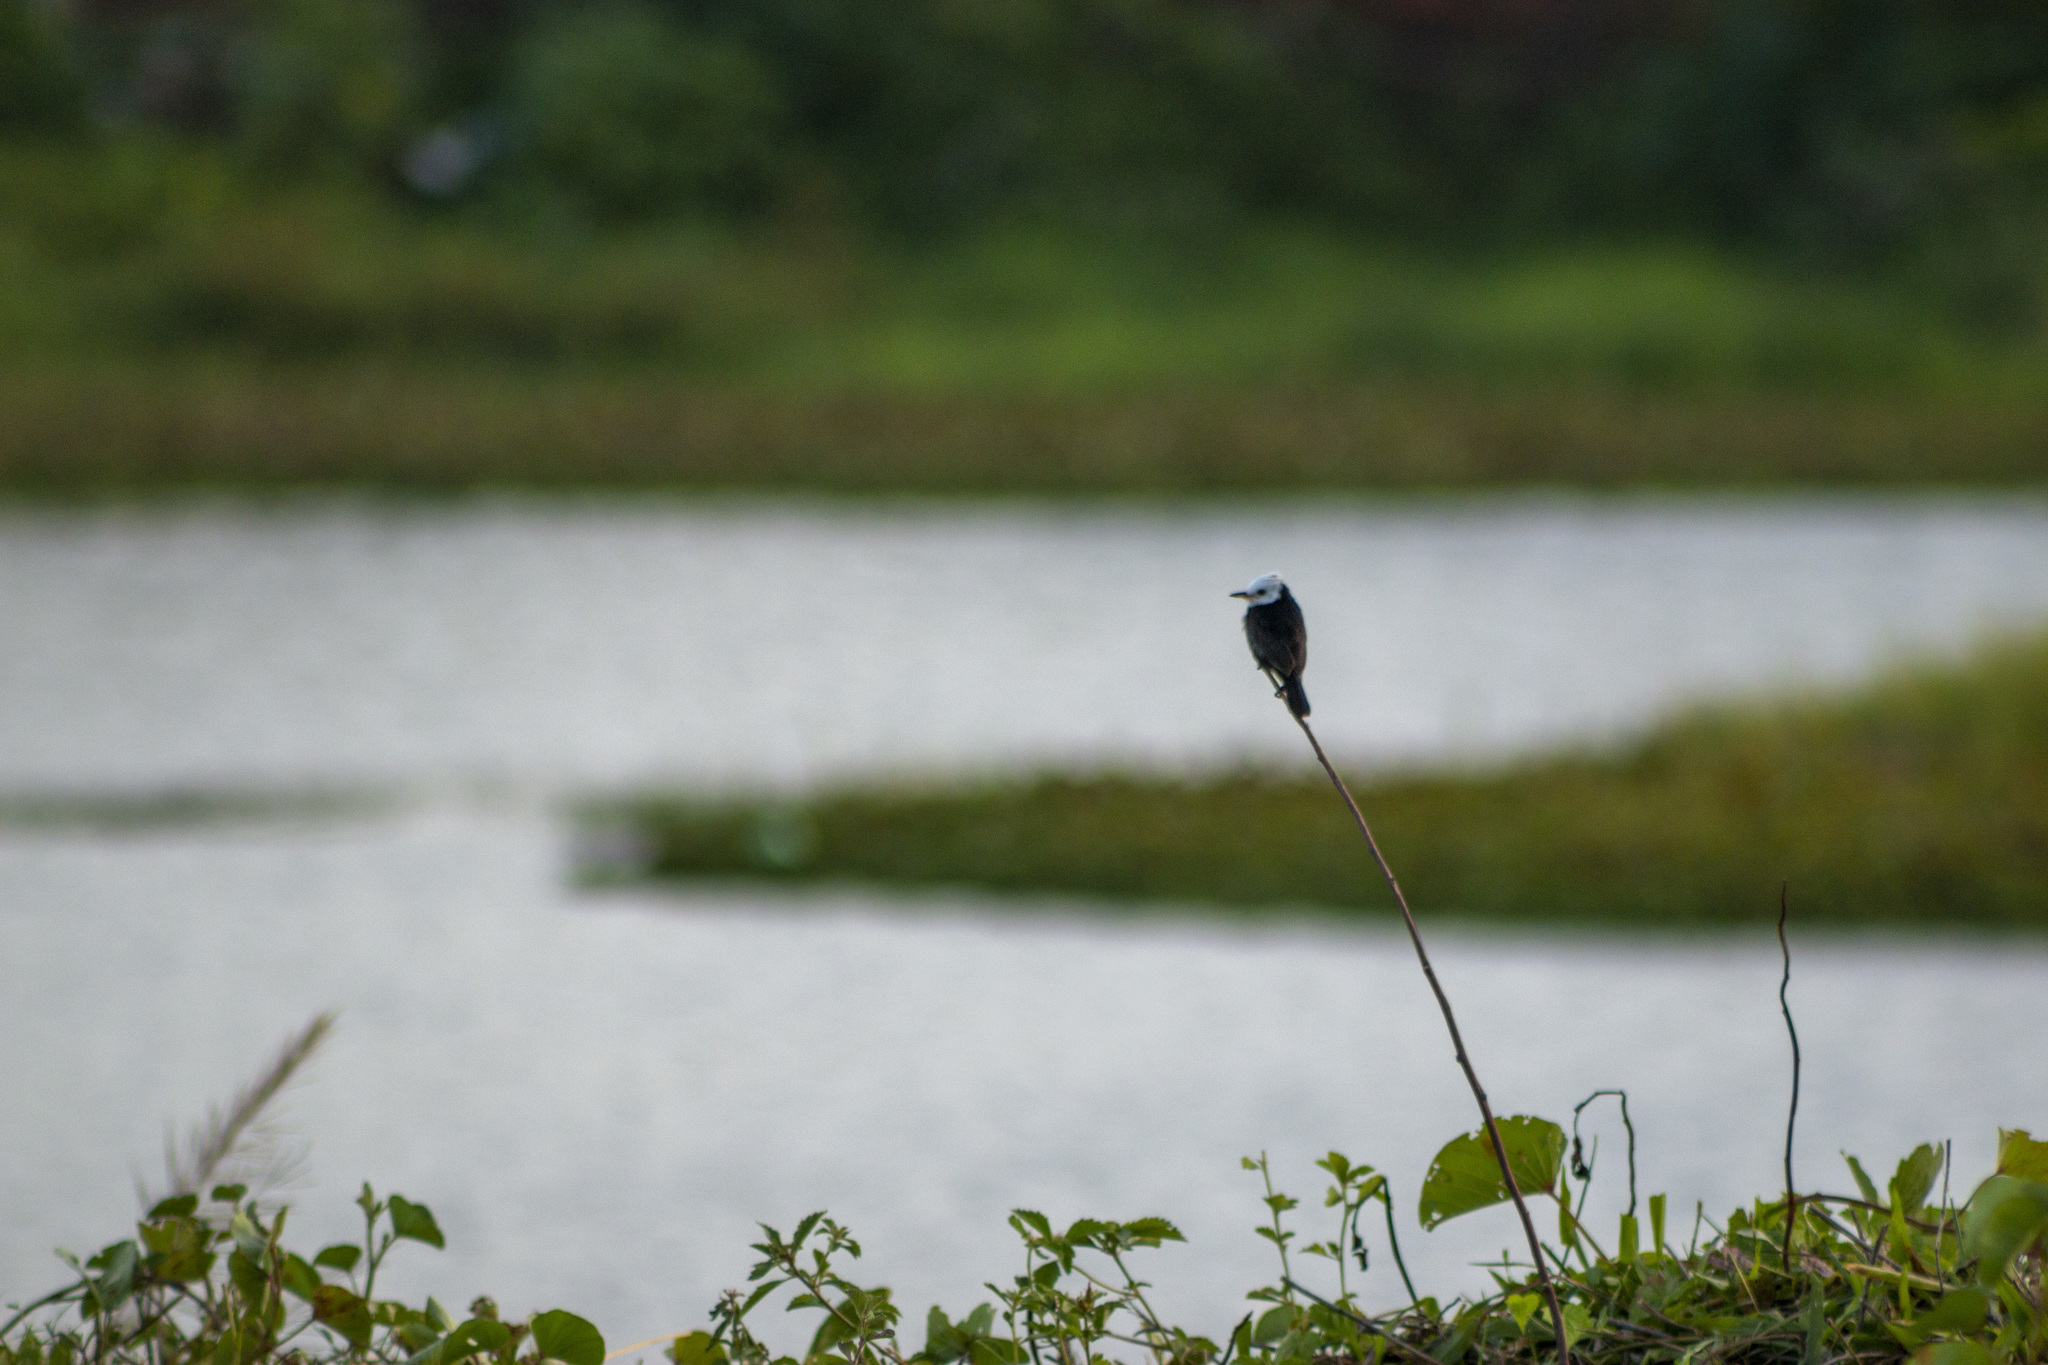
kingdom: Animalia
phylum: Chordata
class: Aves
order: Passeriformes
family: Tyrannidae
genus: Arundinicola
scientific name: Arundinicola leucocephala
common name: White-headed marsh tyrant
